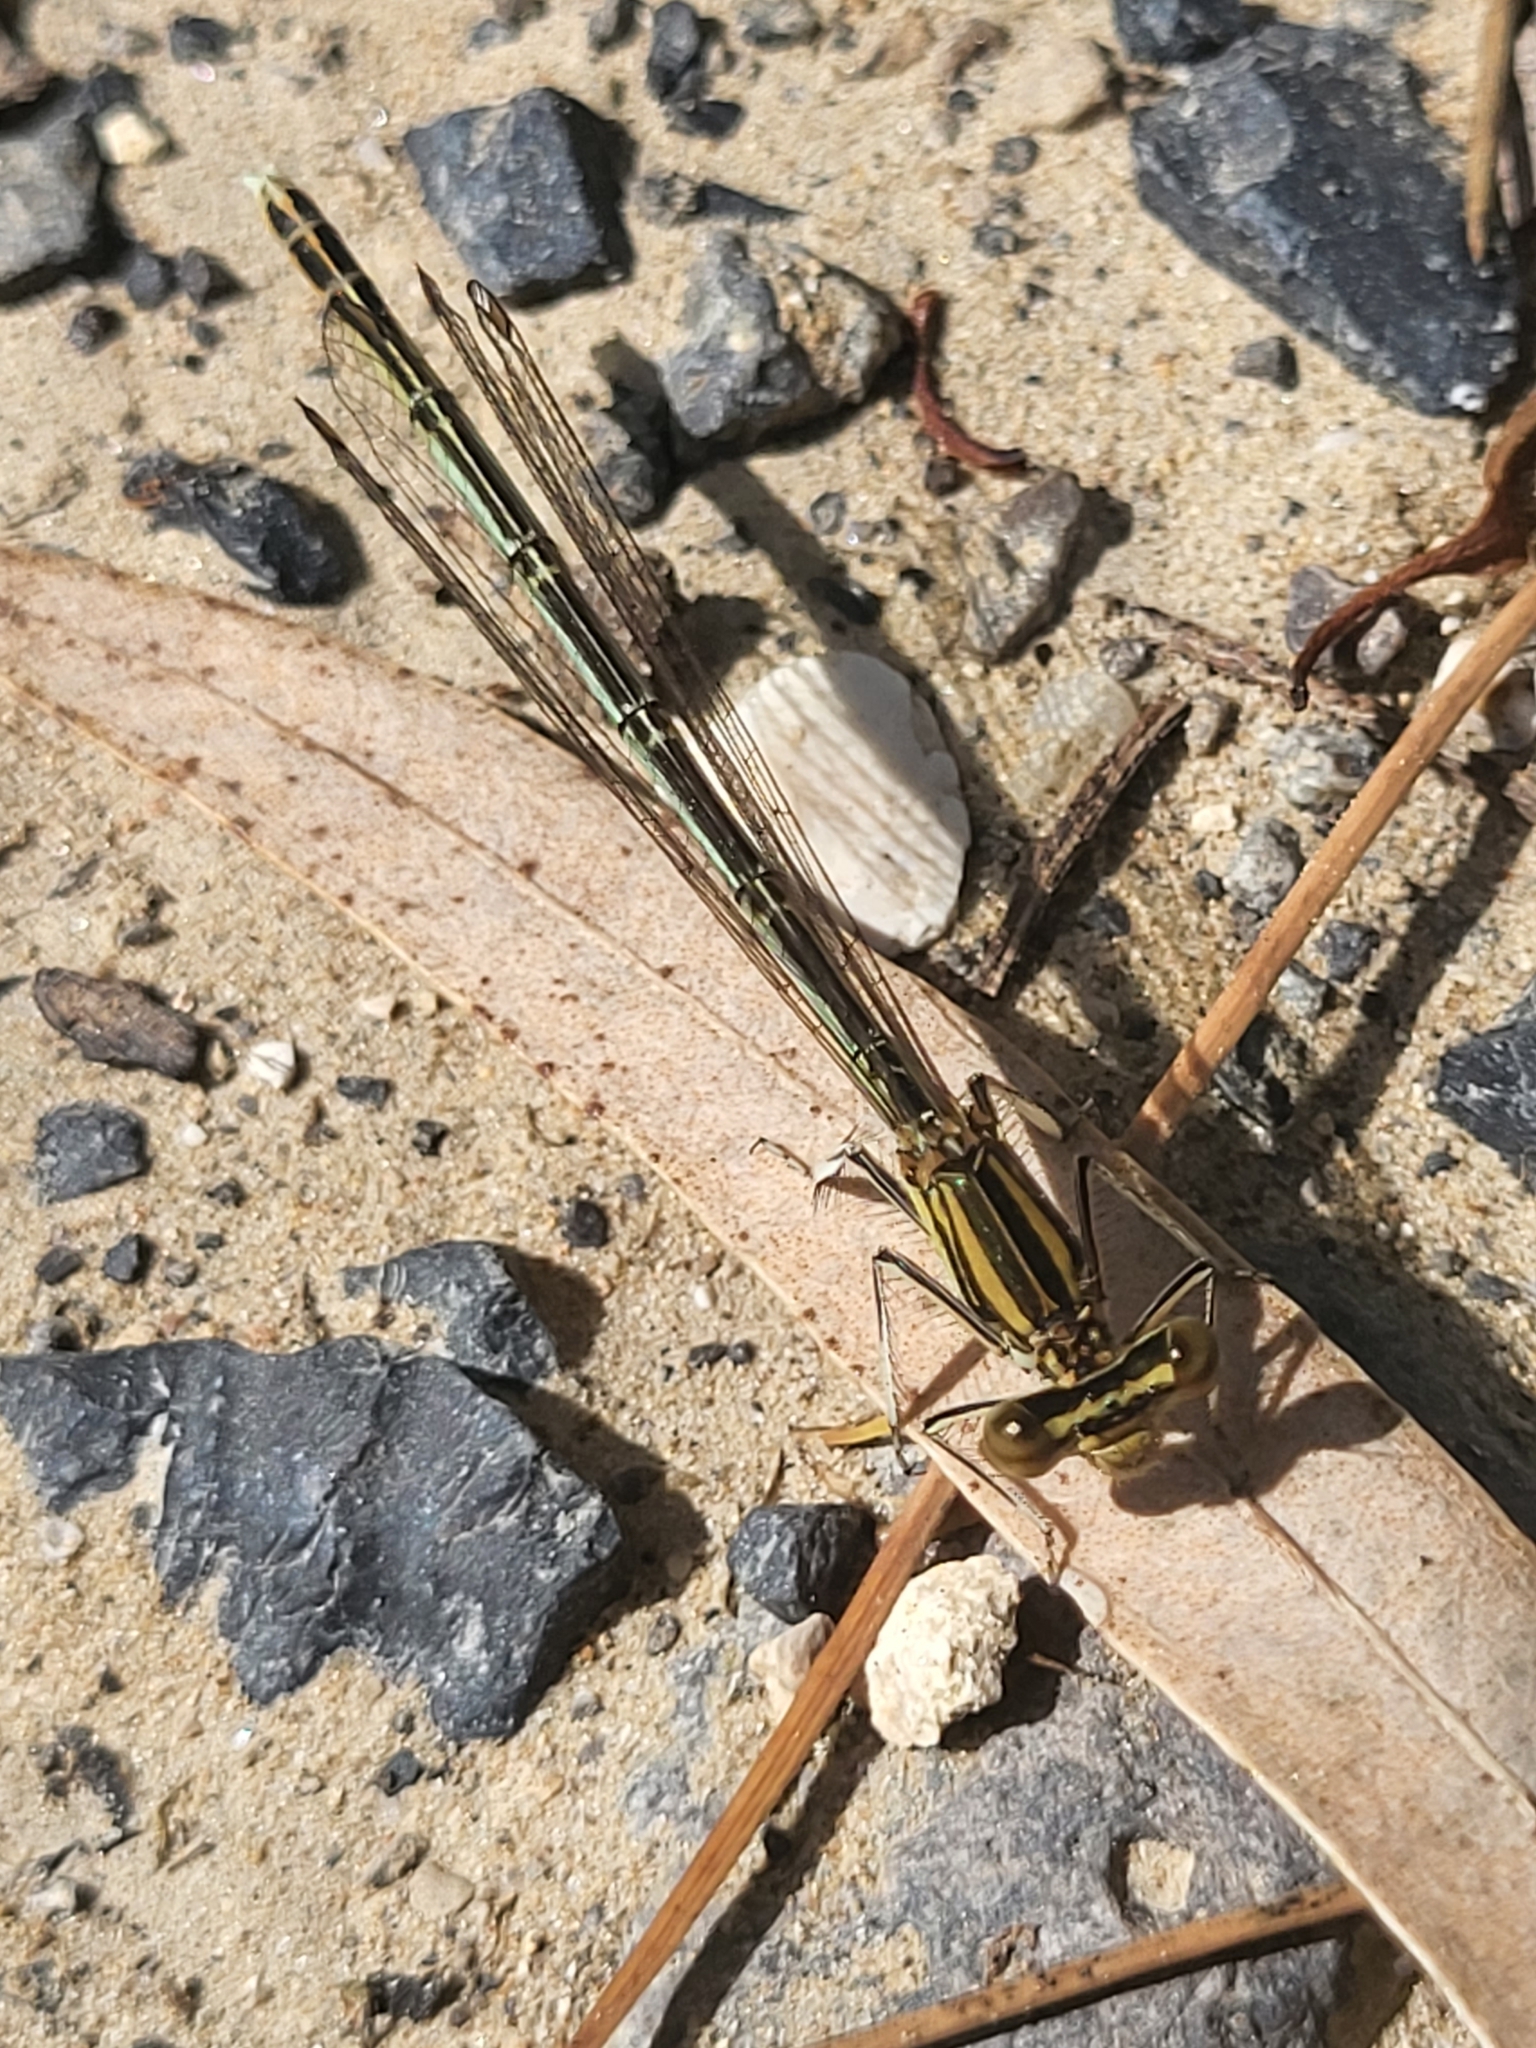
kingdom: Animalia
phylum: Arthropoda
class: Insecta
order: Odonata
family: Platycnemididae
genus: Platycnemis
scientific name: Platycnemis pennipes
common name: White-legged damselfly
